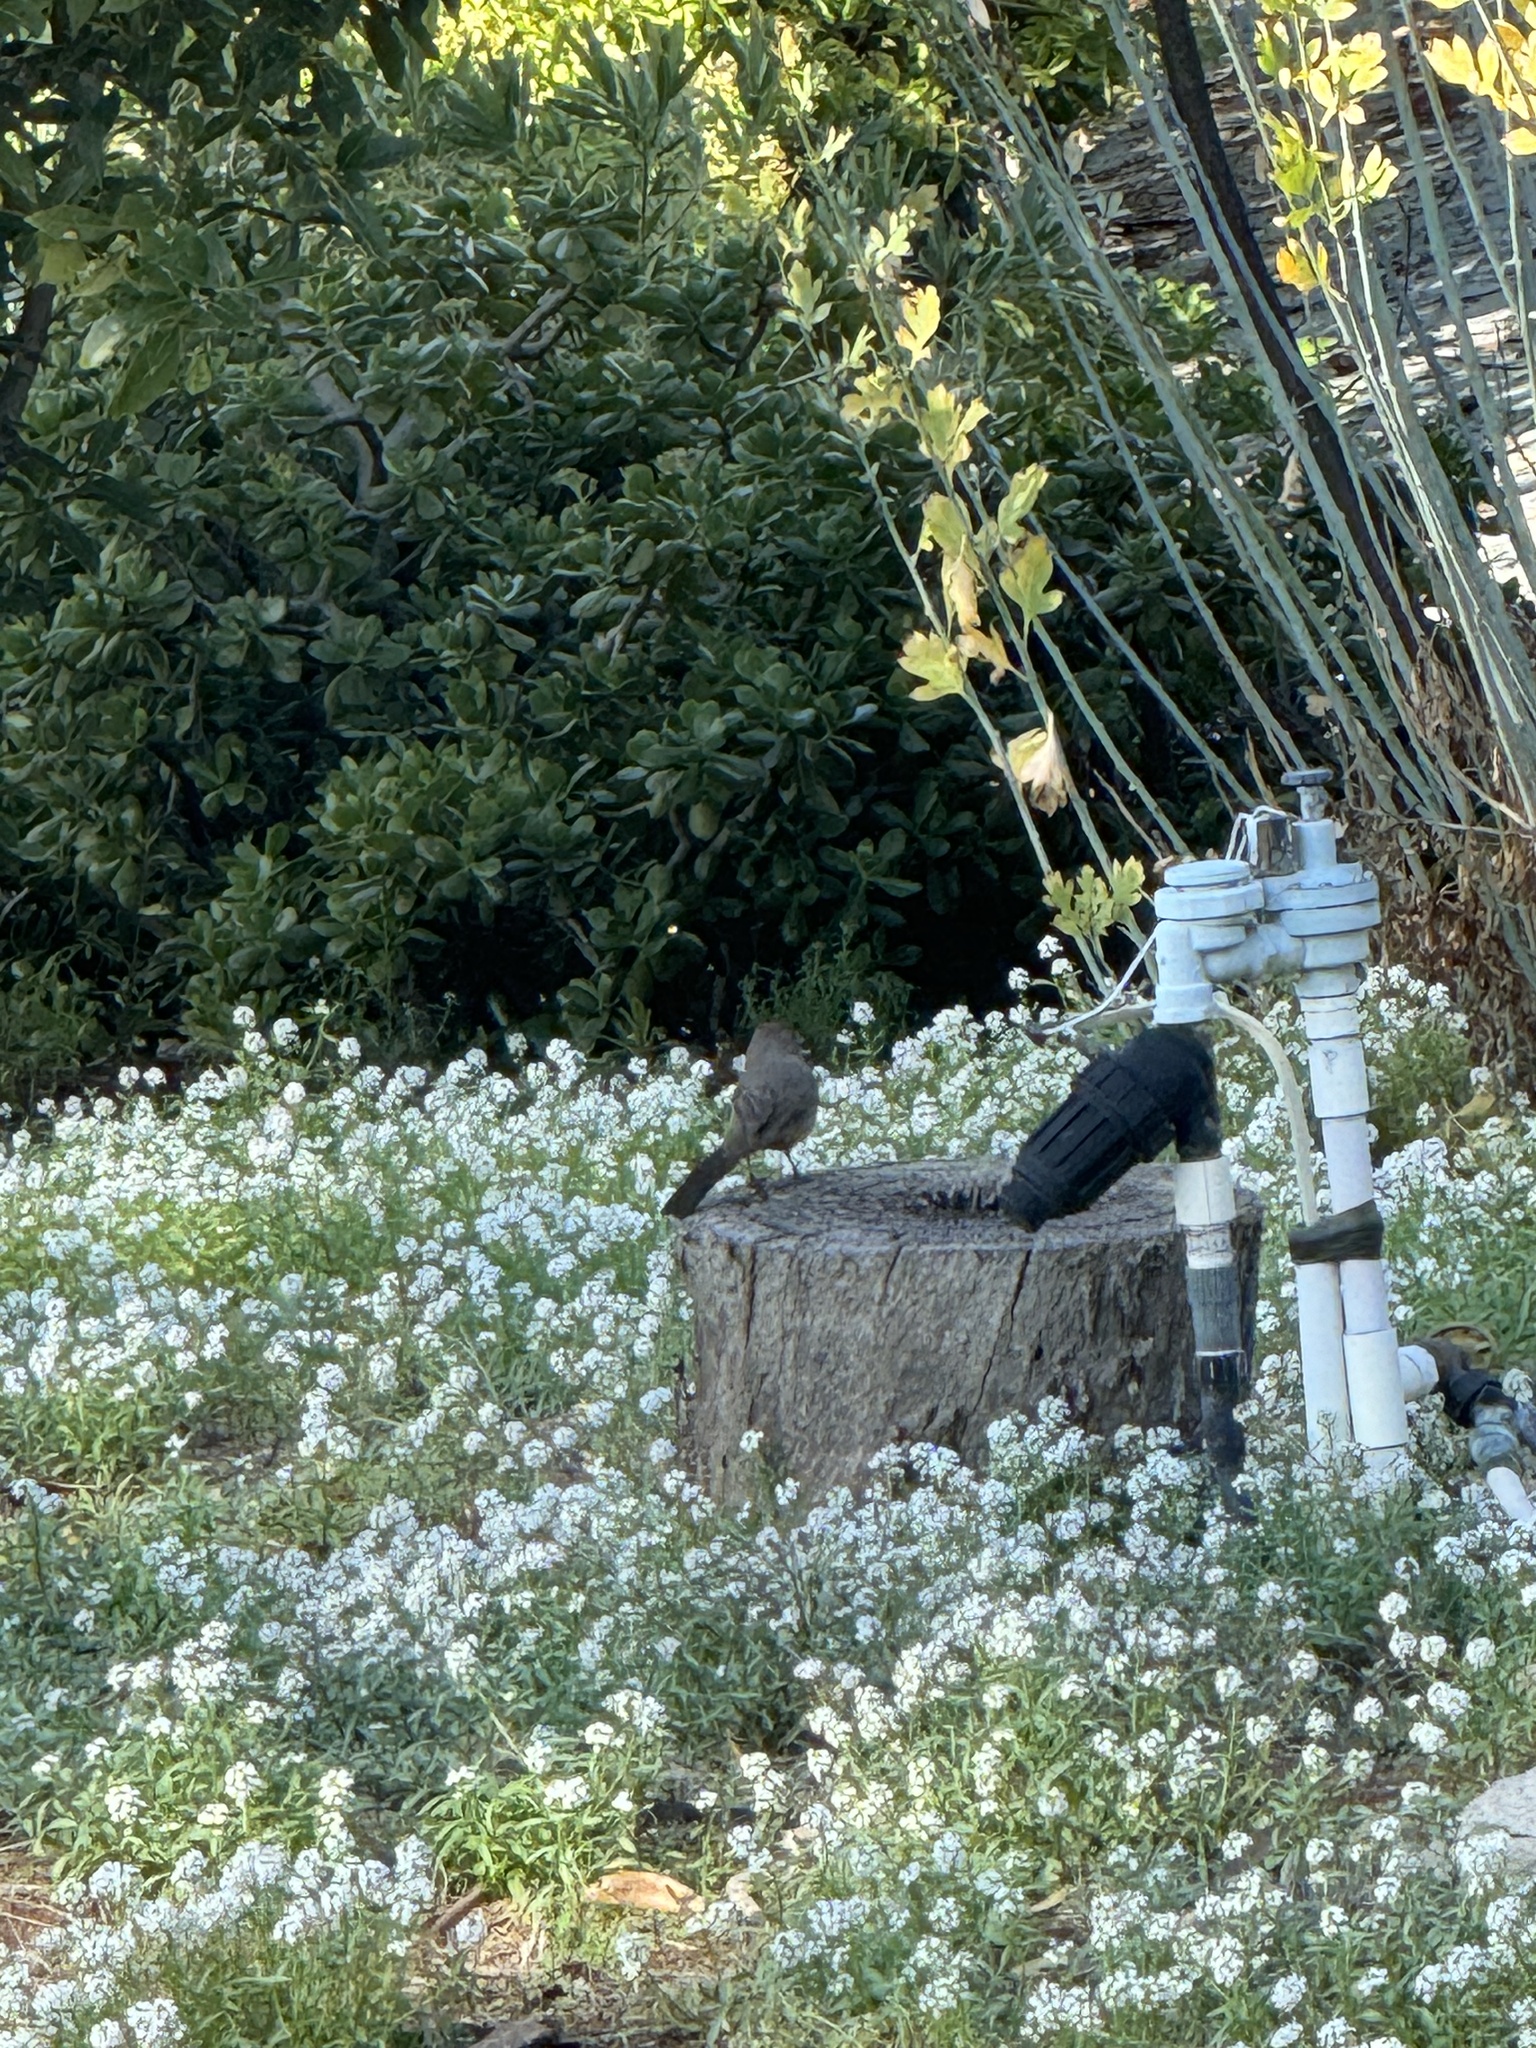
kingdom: Animalia
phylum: Chordata
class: Aves
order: Passeriformes
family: Passerellidae
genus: Melozone
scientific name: Melozone crissalis
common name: California towhee
